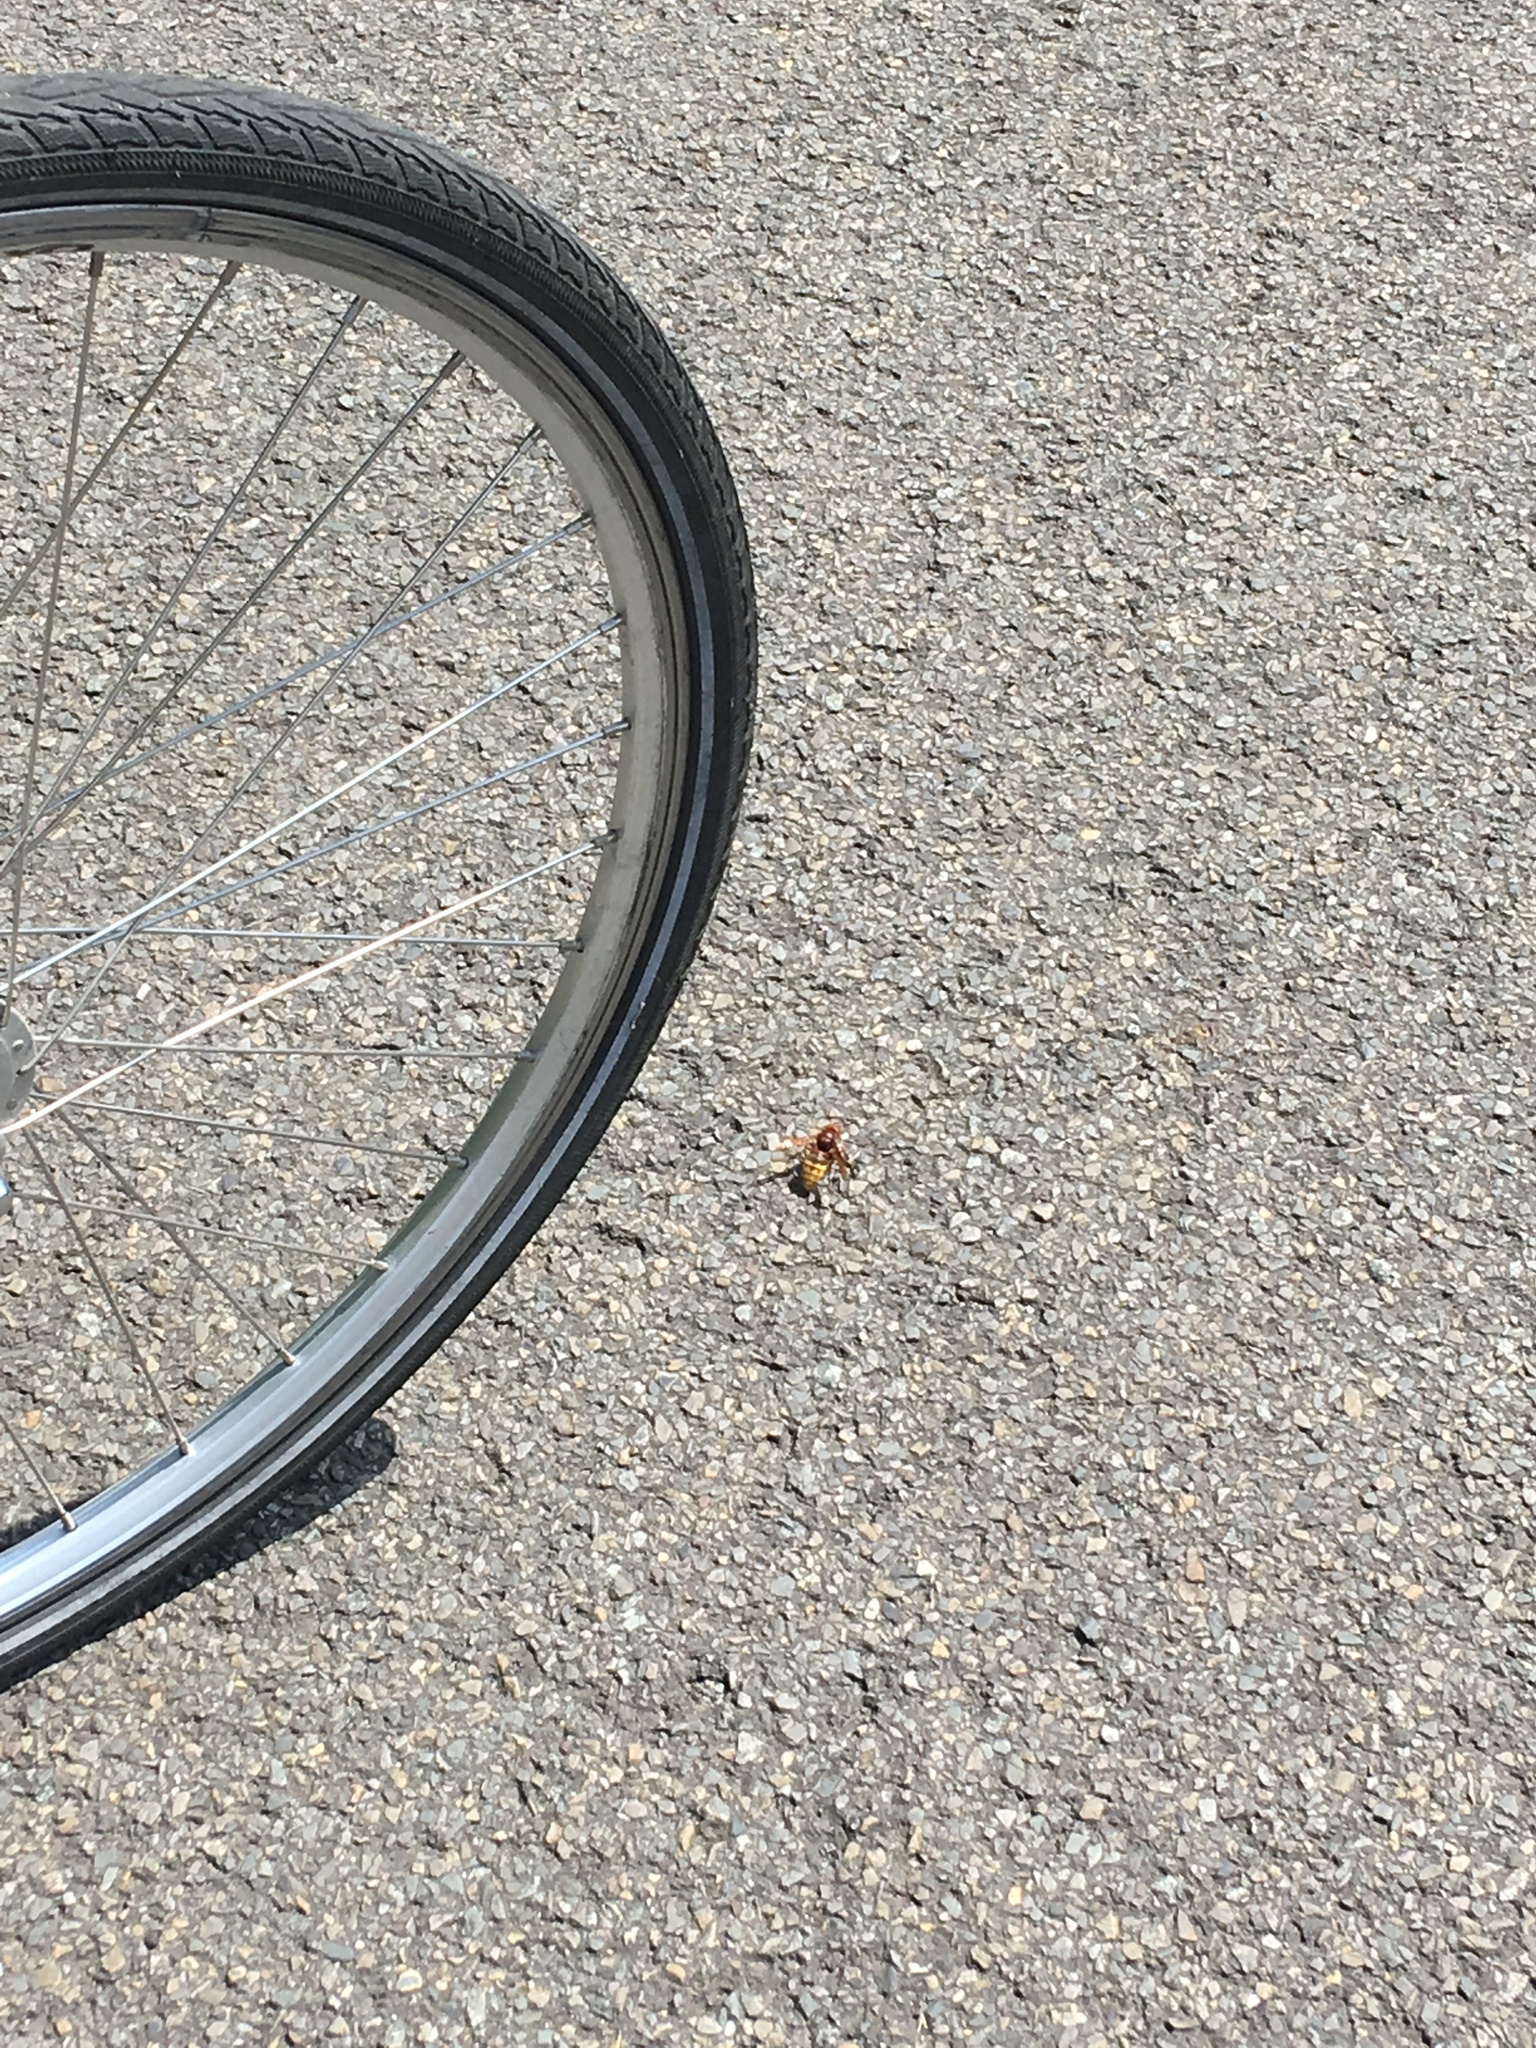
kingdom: Animalia
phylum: Arthropoda
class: Insecta
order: Hymenoptera
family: Vespidae
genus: Vespa
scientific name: Vespa crabro
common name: Hornet
